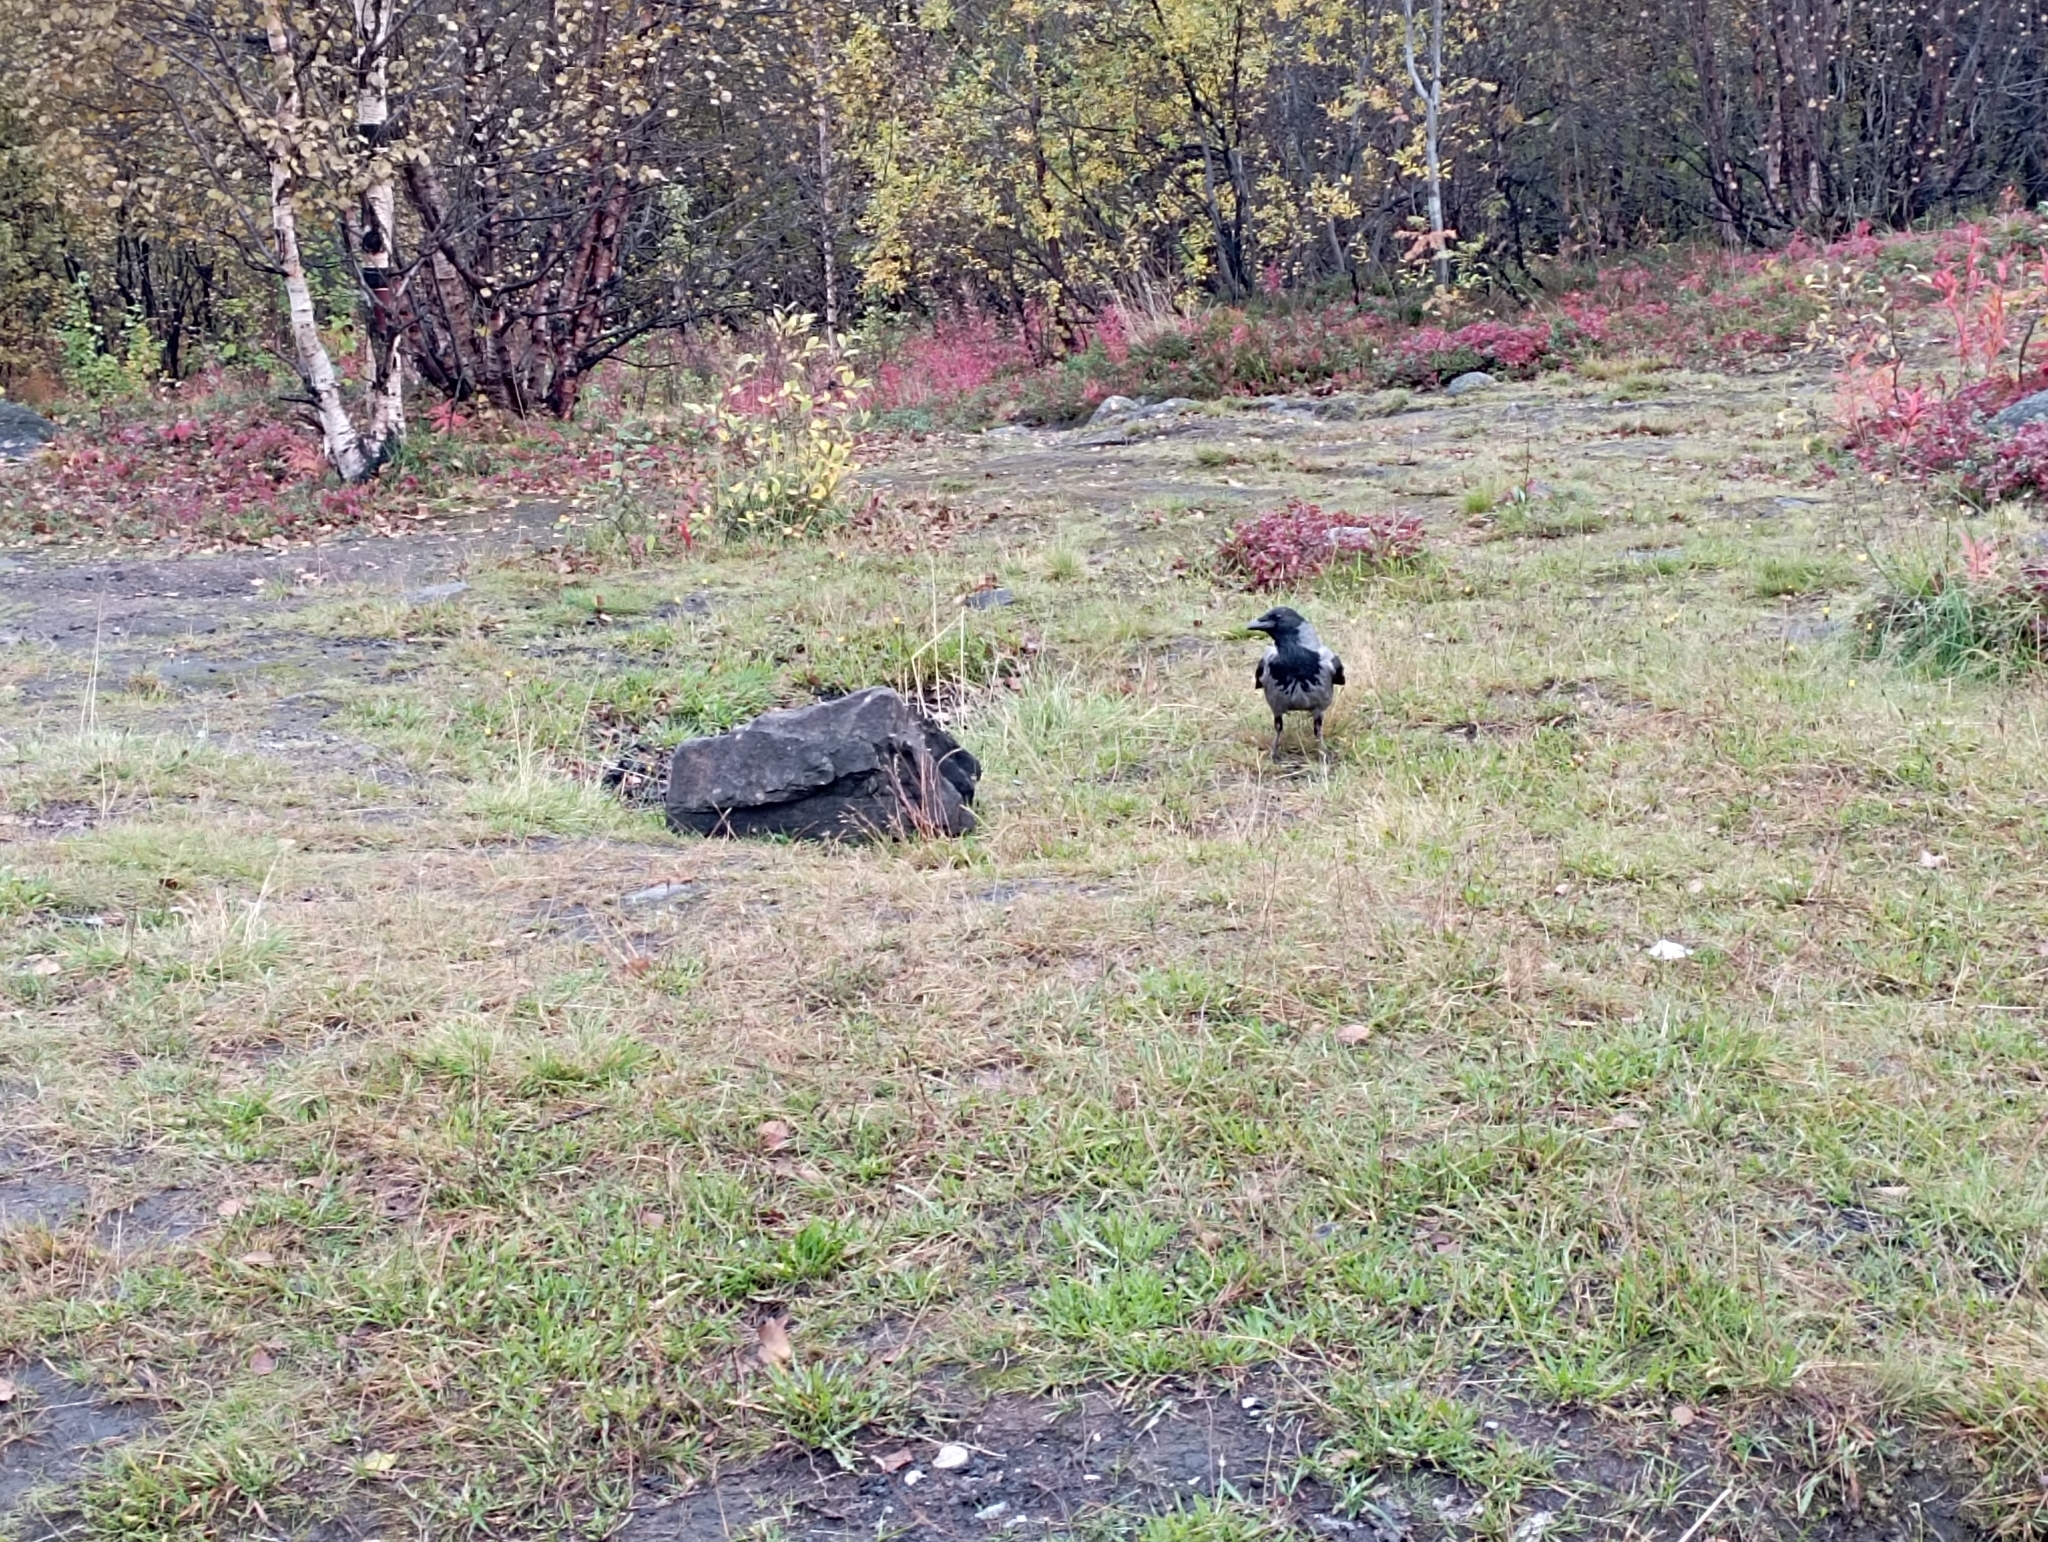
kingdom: Animalia
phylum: Chordata
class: Aves
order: Passeriformes
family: Corvidae
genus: Corvus
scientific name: Corvus cornix
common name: Hooded crow
